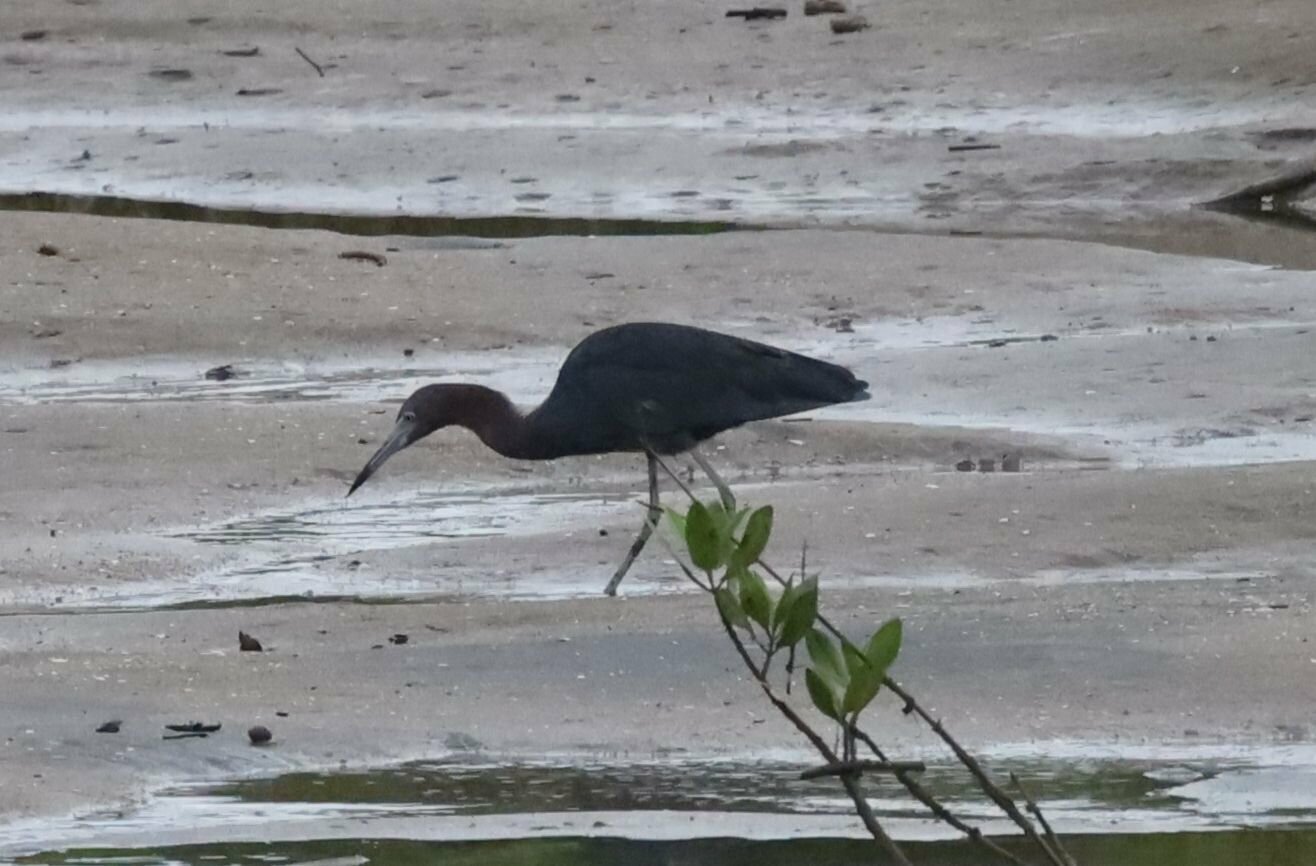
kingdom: Animalia
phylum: Chordata
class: Aves
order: Pelecaniformes
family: Ardeidae
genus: Egretta
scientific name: Egretta caerulea
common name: Little blue heron
